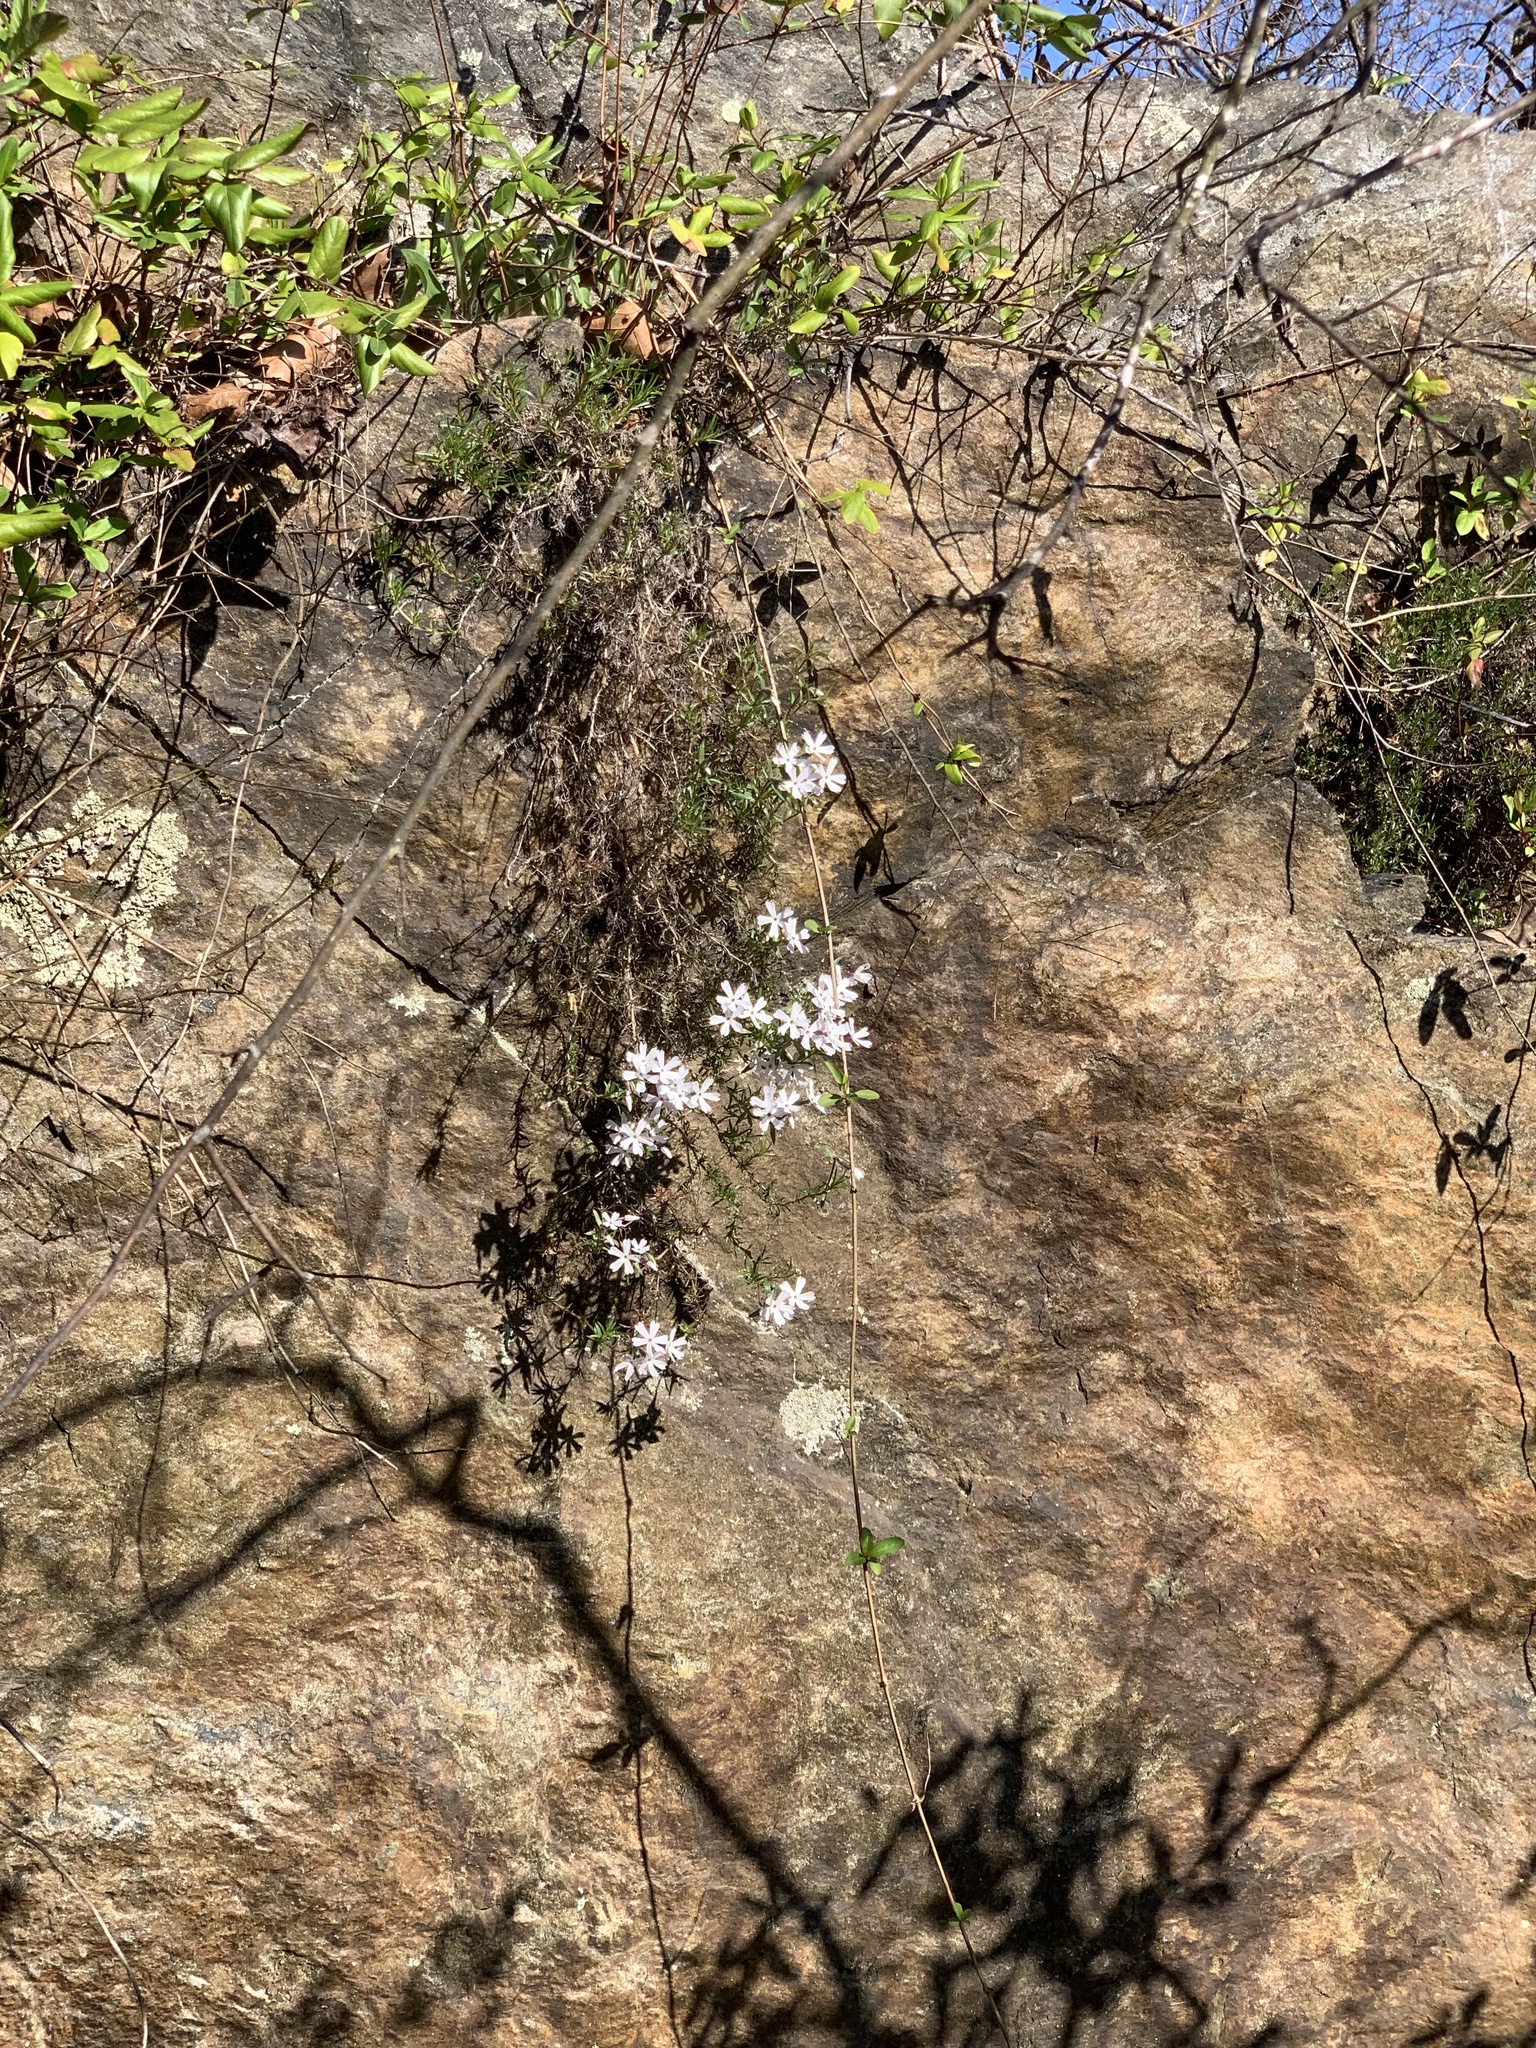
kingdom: Plantae
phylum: Tracheophyta
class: Magnoliopsida
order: Ericales
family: Polemoniaceae
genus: Phlox
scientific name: Phlox subulata
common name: Moss phlox
